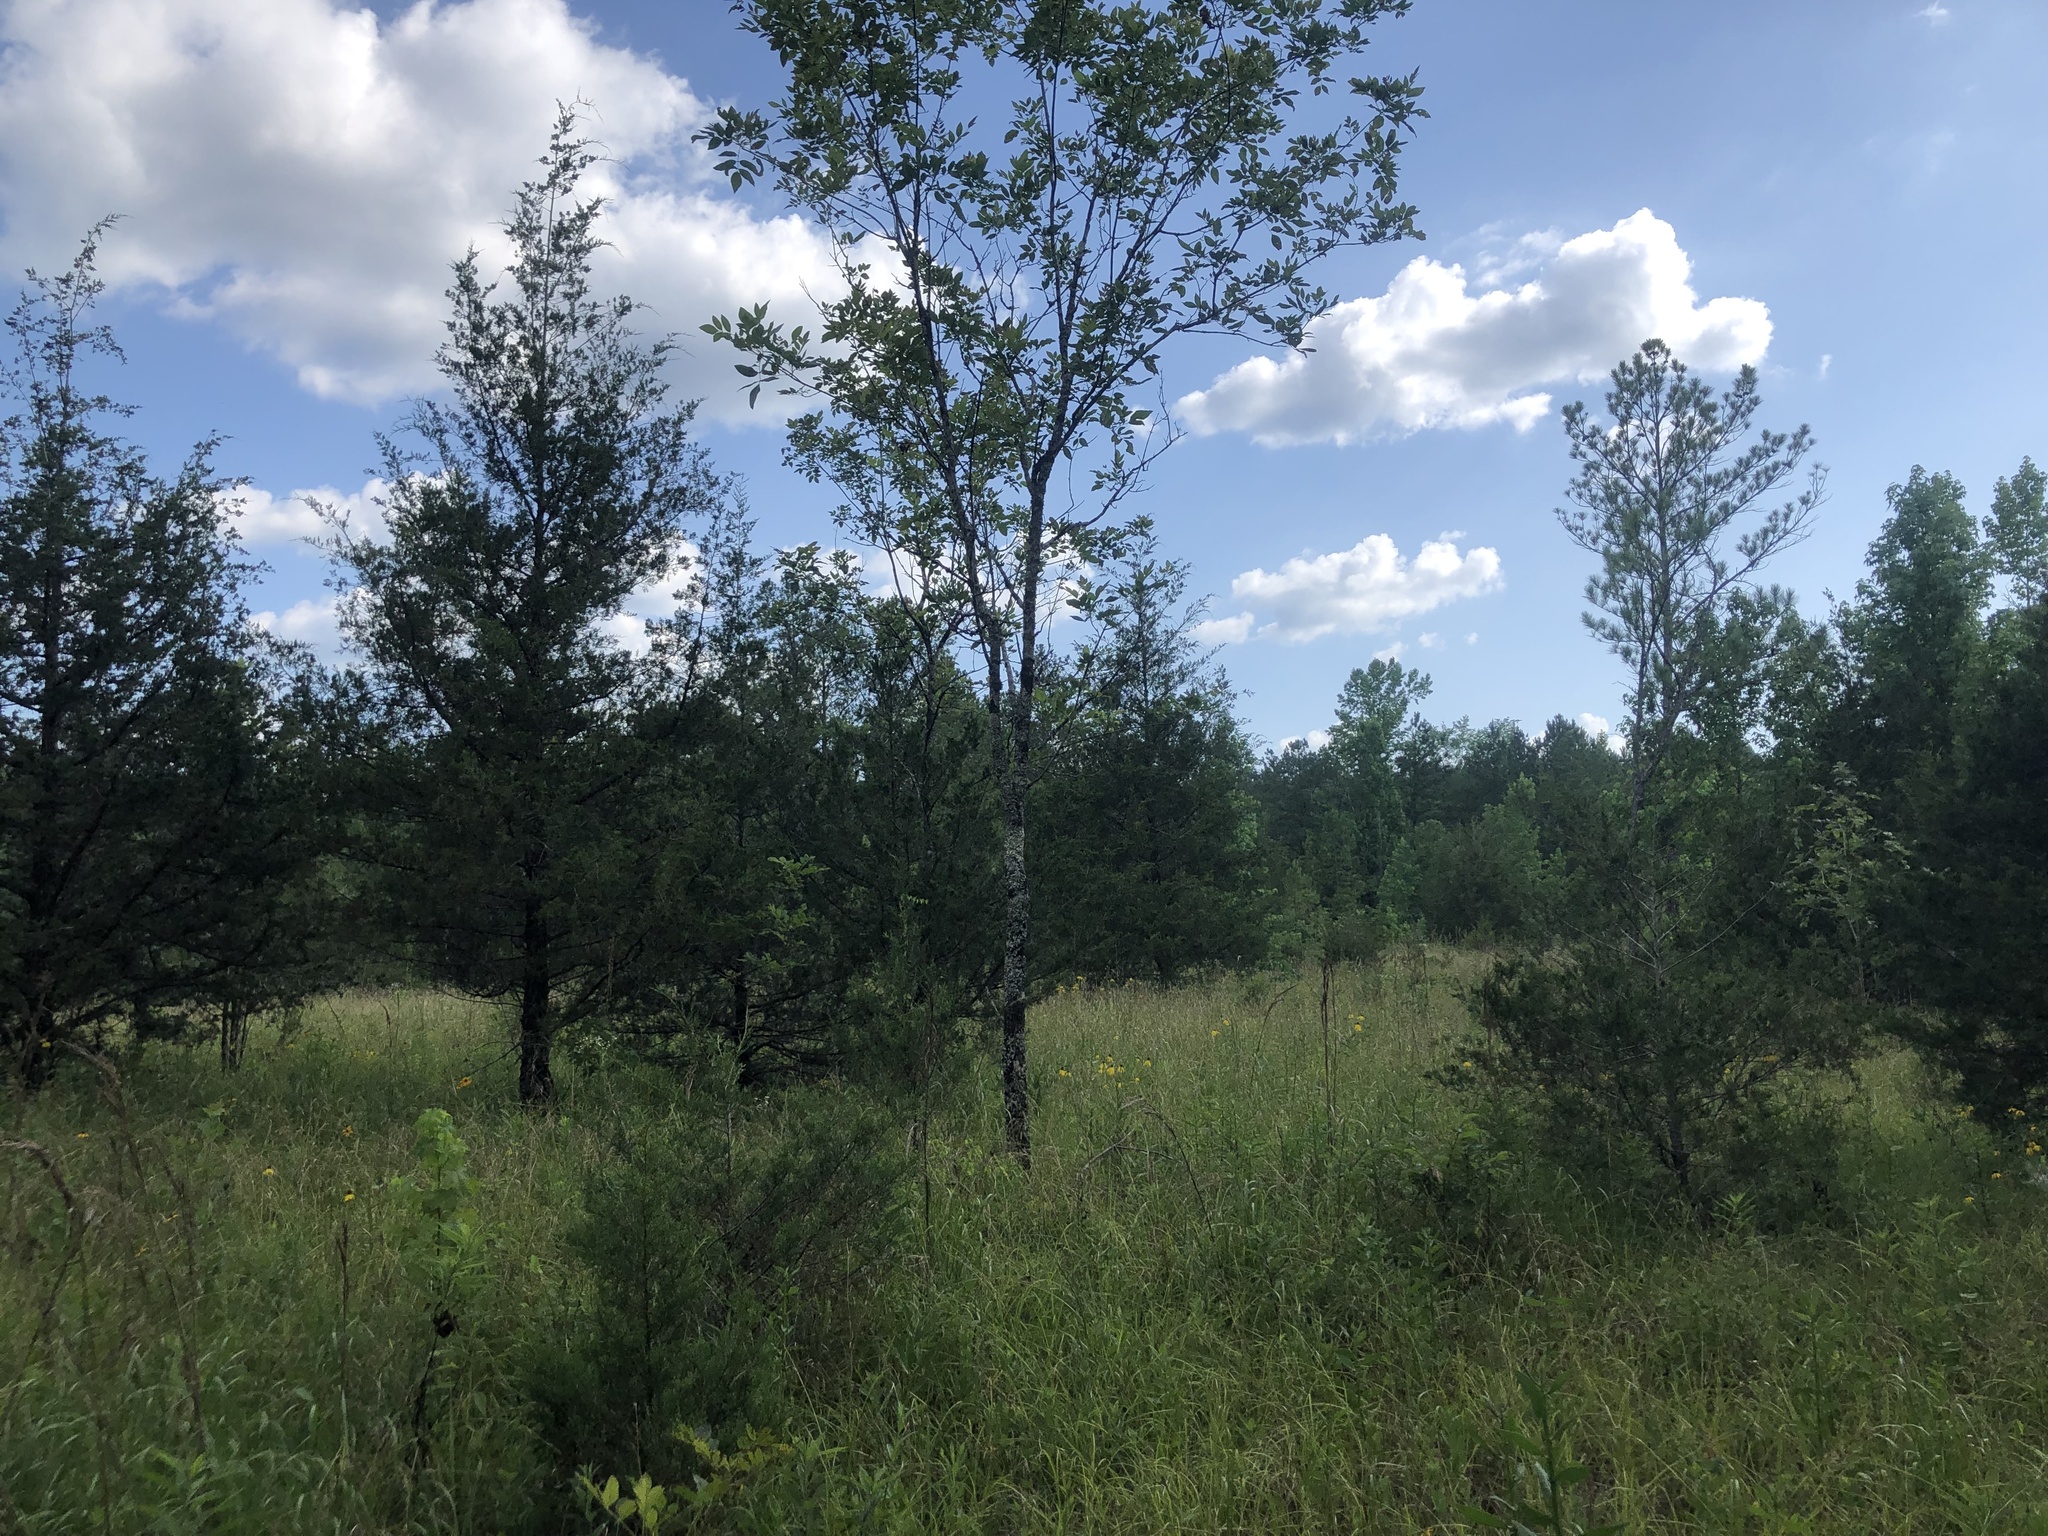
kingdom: Plantae
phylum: Tracheophyta
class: Pinopsida
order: Pinales
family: Cupressaceae
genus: Juniperus
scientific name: Juniperus virginiana
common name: Red juniper
